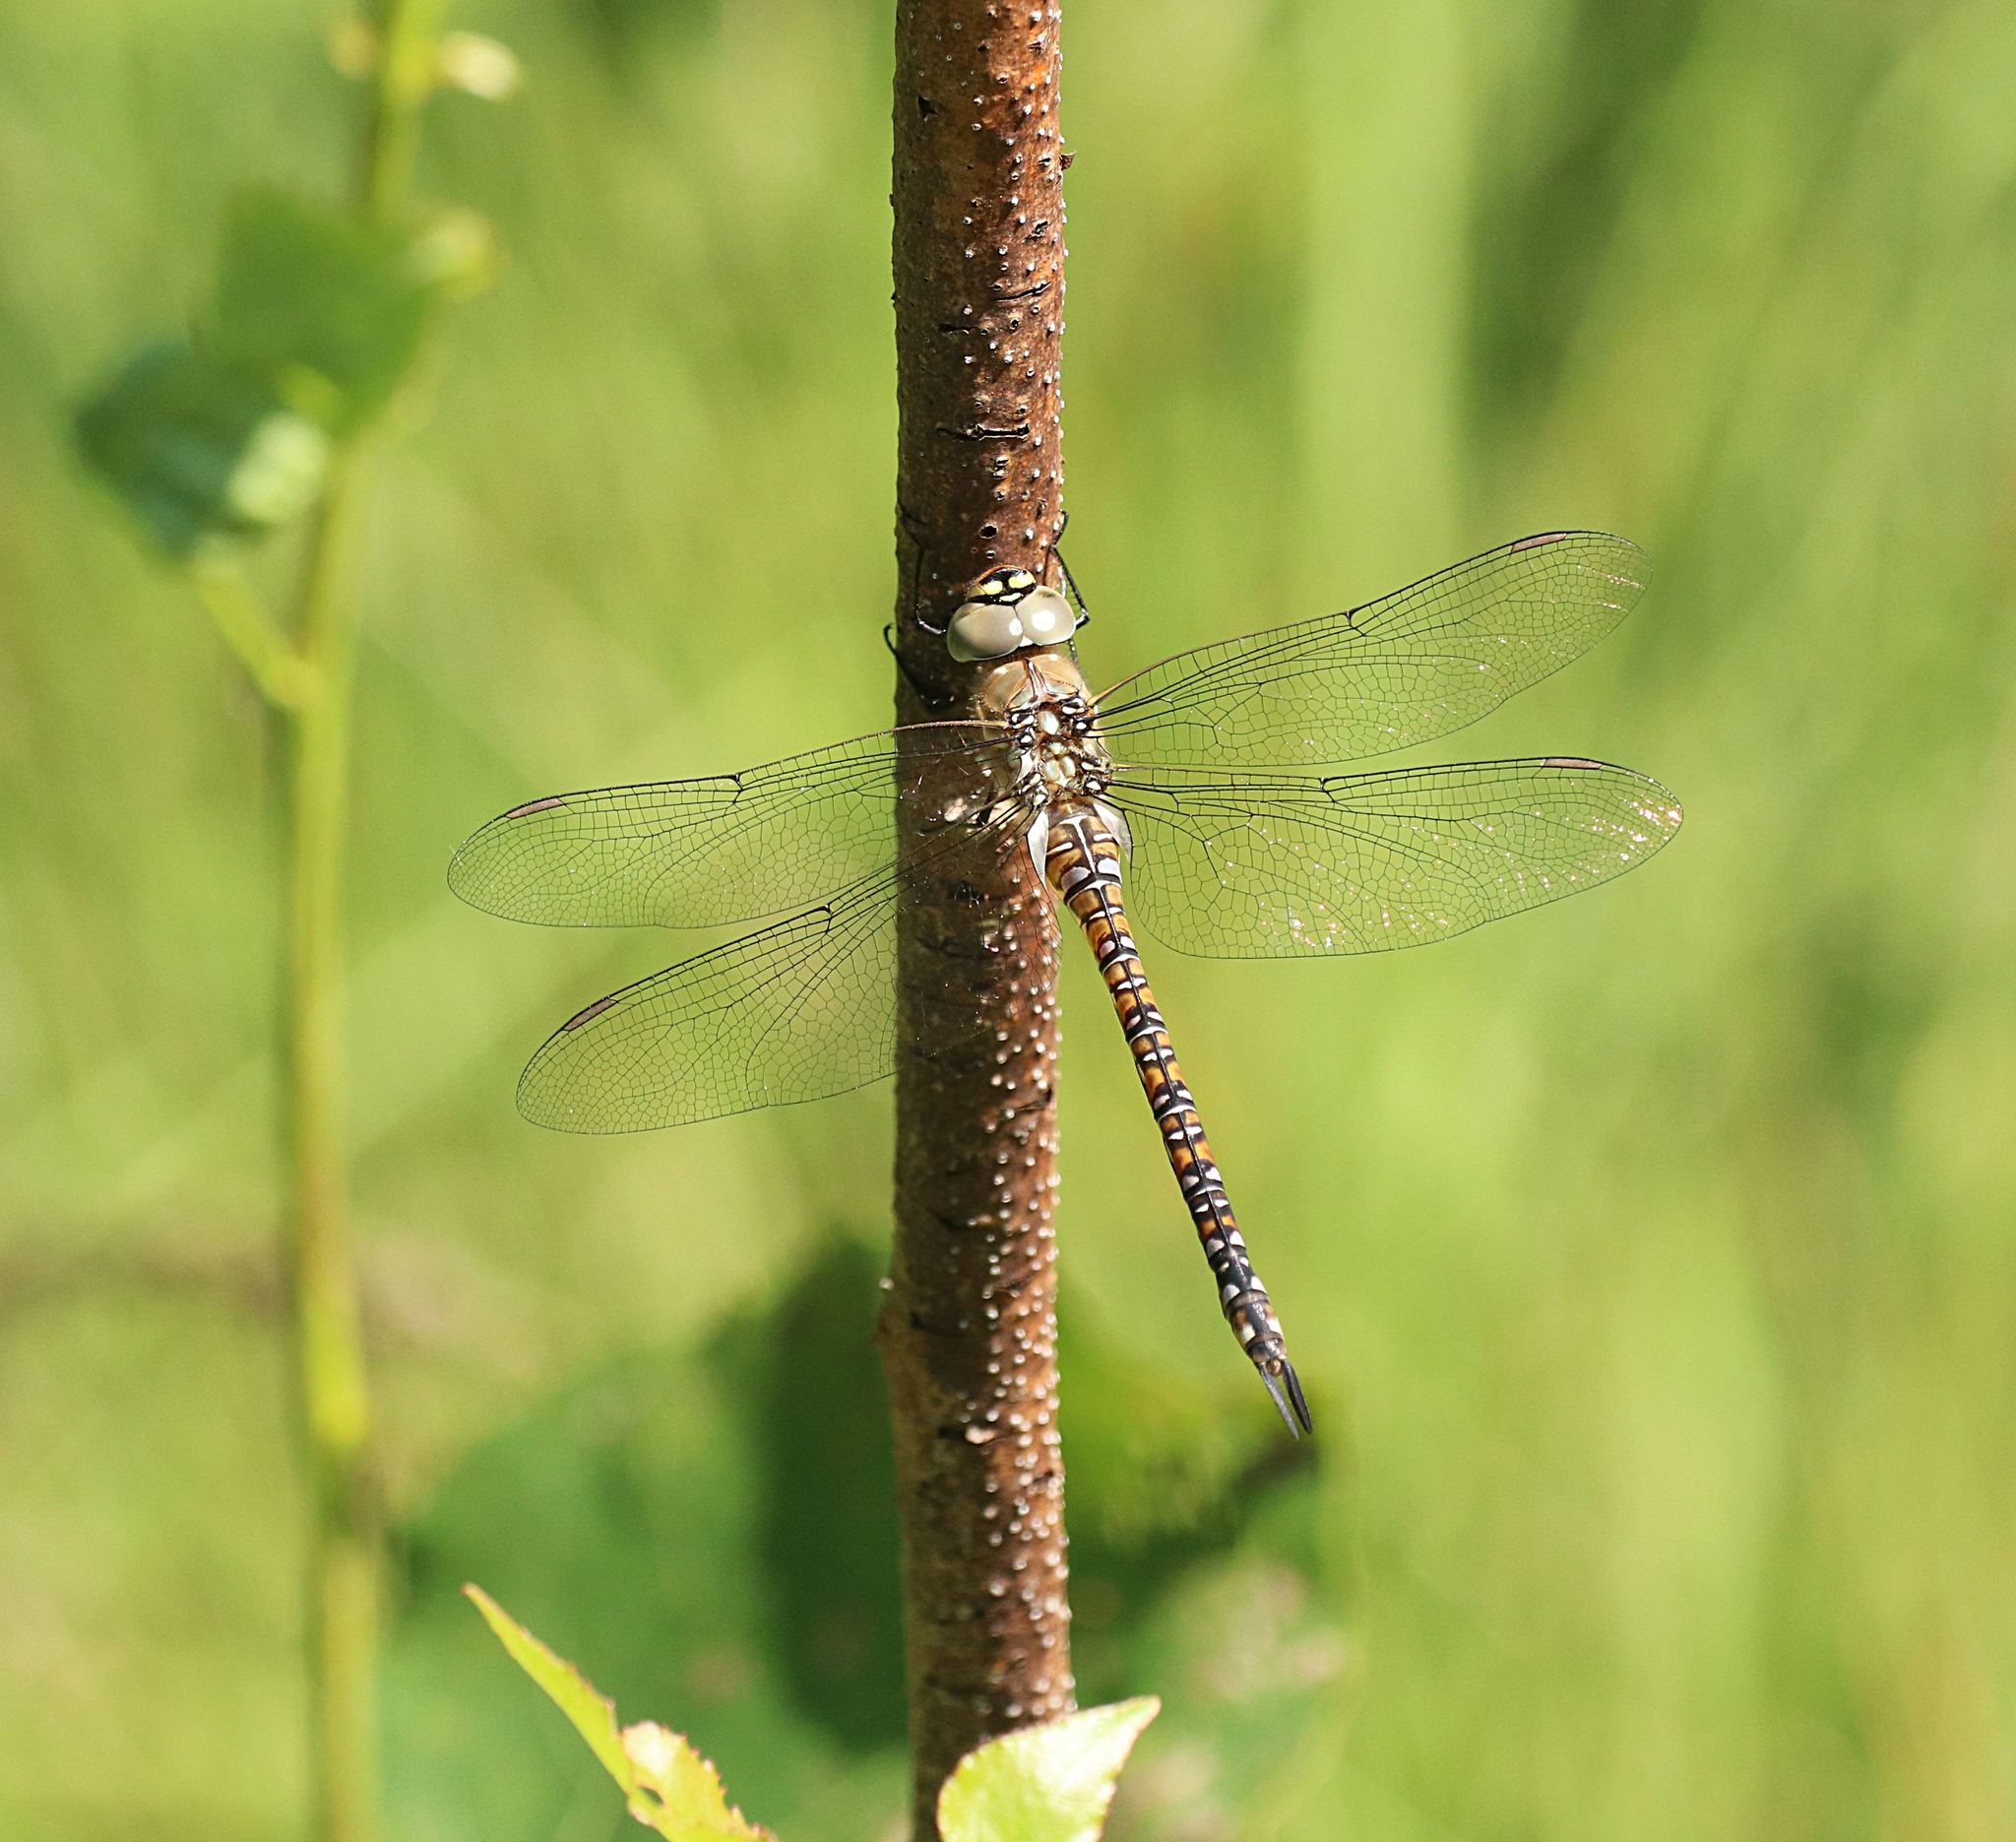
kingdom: Animalia
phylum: Arthropoda
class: Insecta
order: Odonata
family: Aeshnidae
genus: Aeshna
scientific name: Aeshna mixta
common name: Migrant hawker
